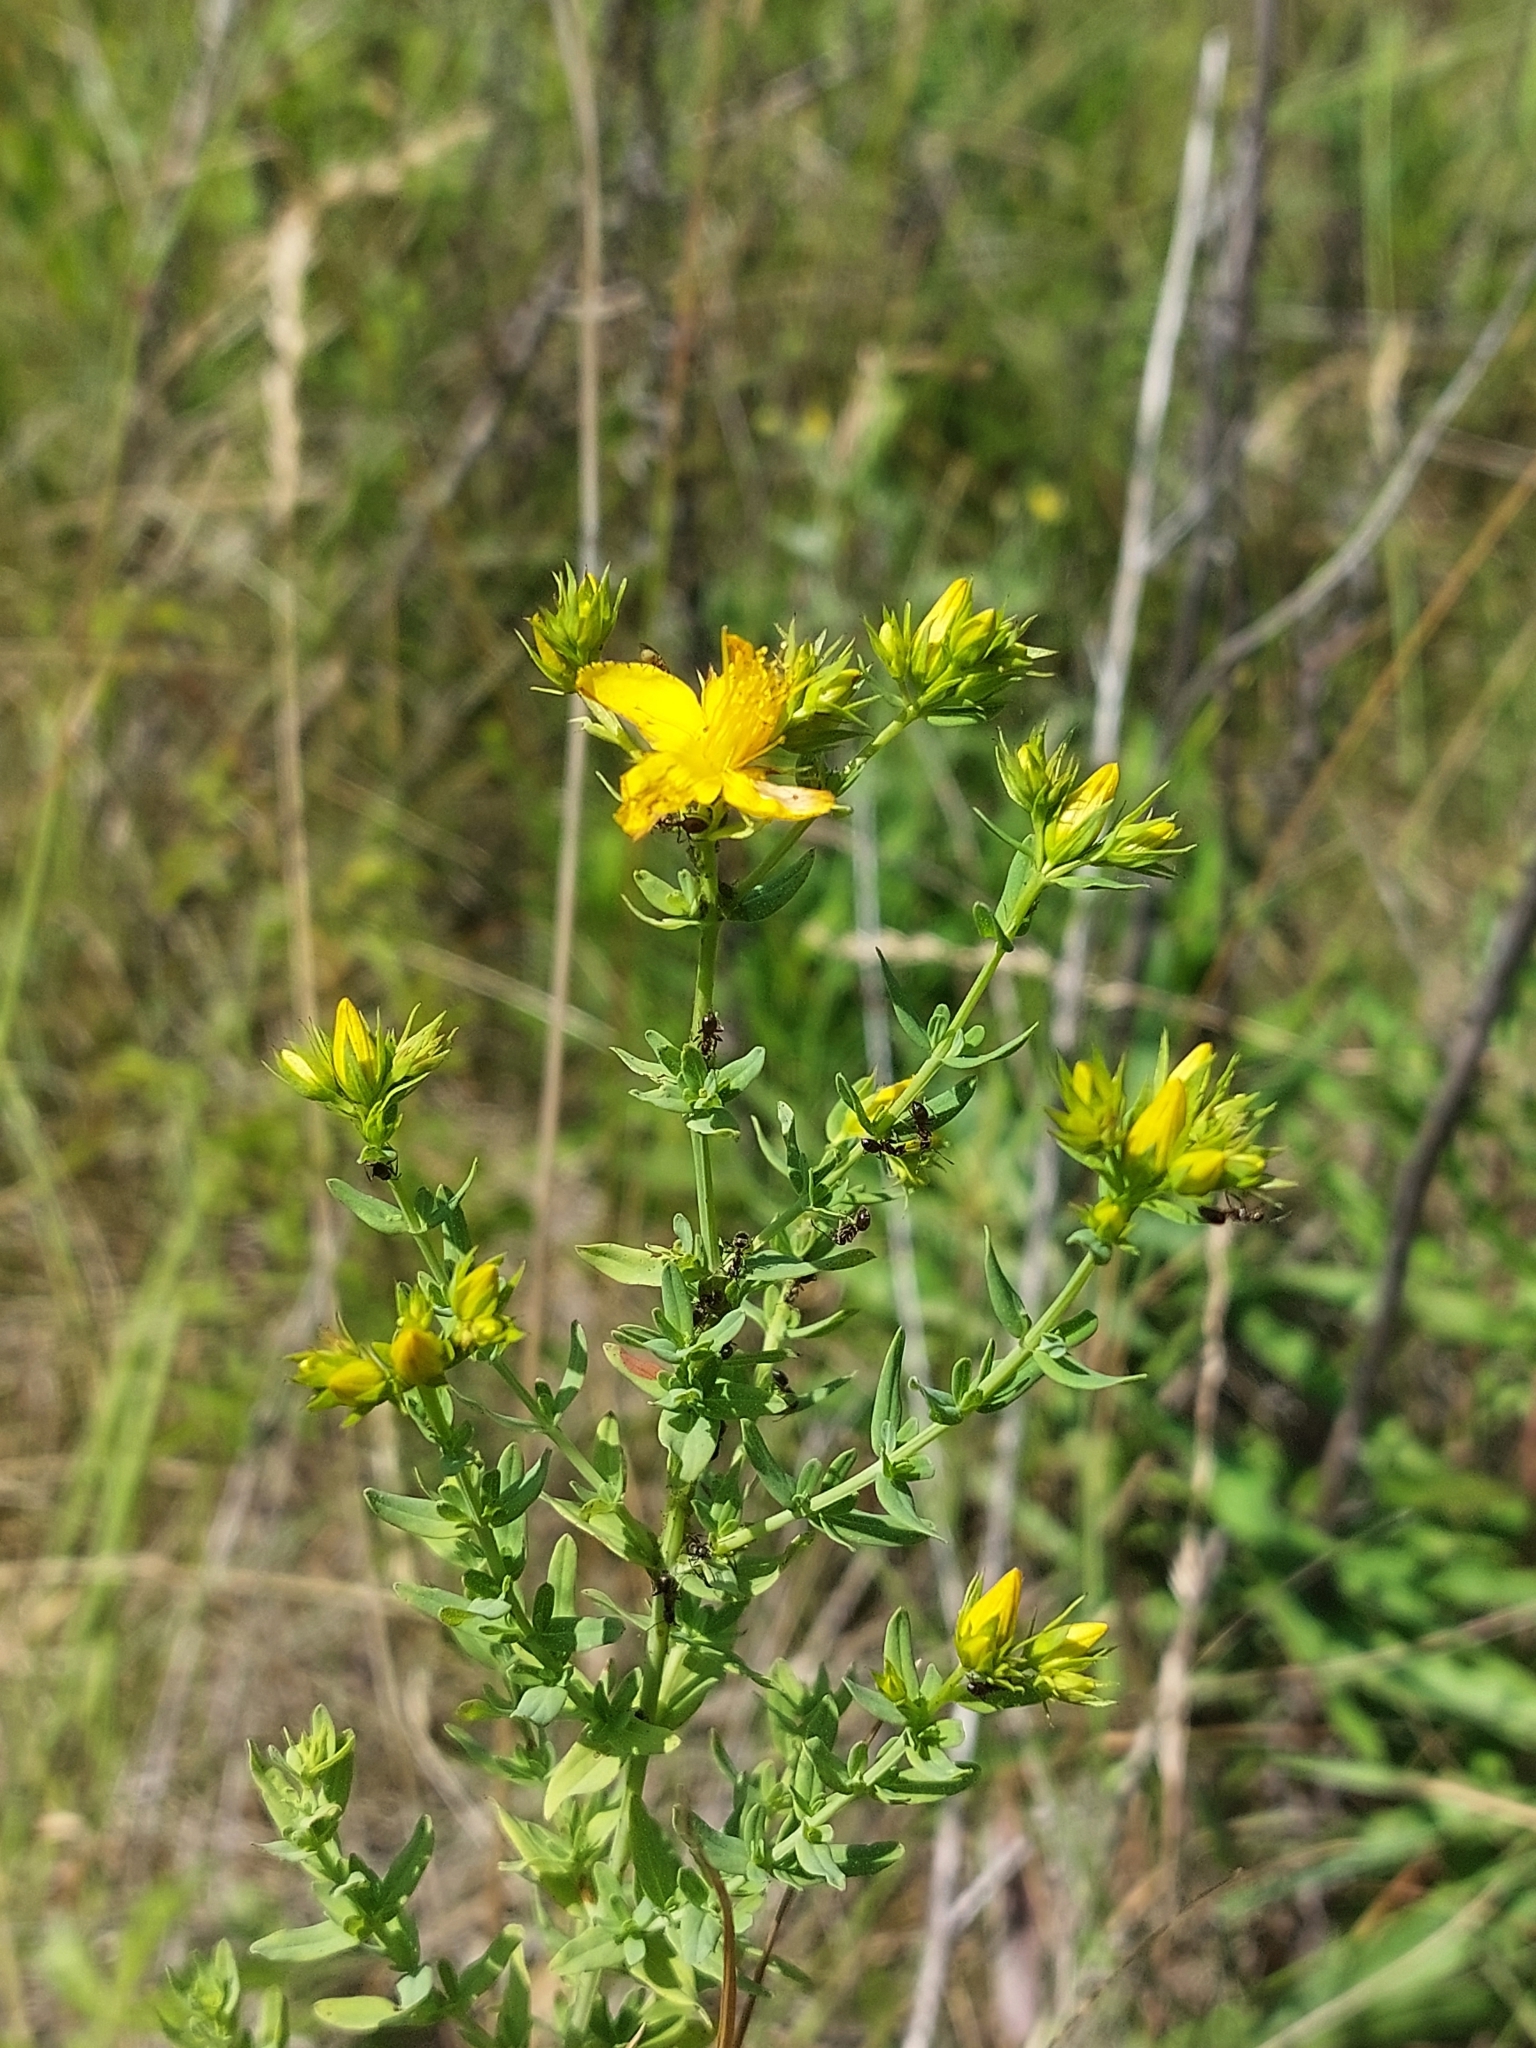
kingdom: Plantae
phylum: Tracheophyta
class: Magnoliopsida
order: Malpighiales
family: Hypericaceae
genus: Hypericum
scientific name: Hypericum perforatum
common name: Common st. johnswort
